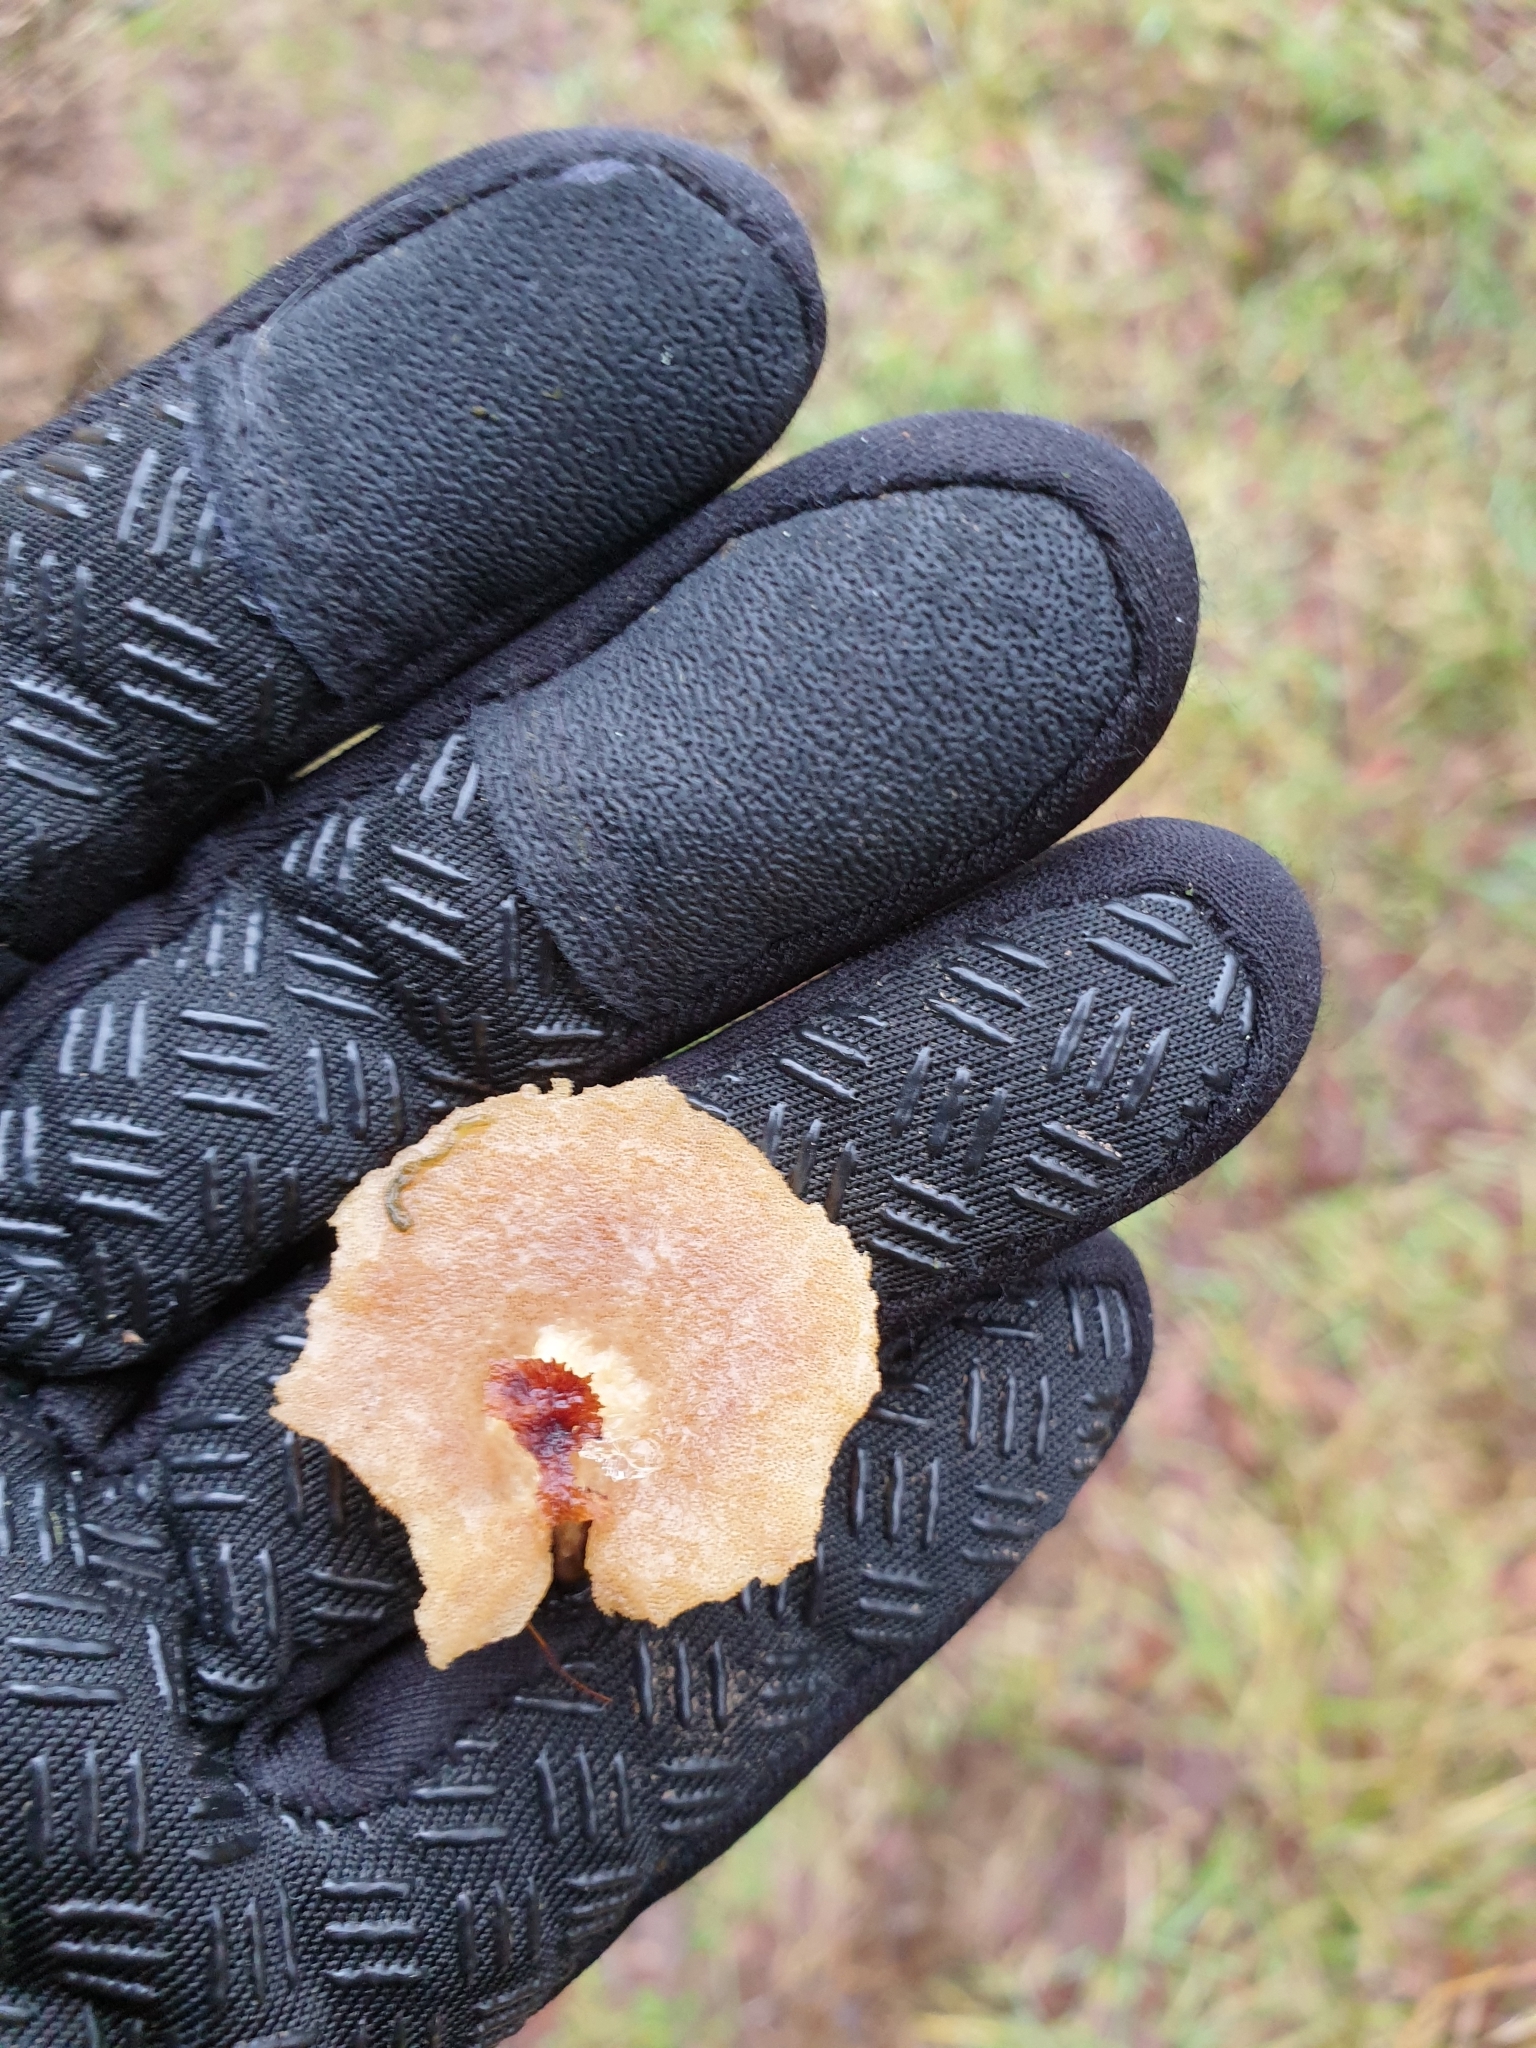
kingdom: Fungi
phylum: Basidiomycota
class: Agaricomycetes
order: Polyporales
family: Polyporaceae
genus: Cerioporus
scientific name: Cerioporus leptocephalus
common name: Blackfoot polypore
